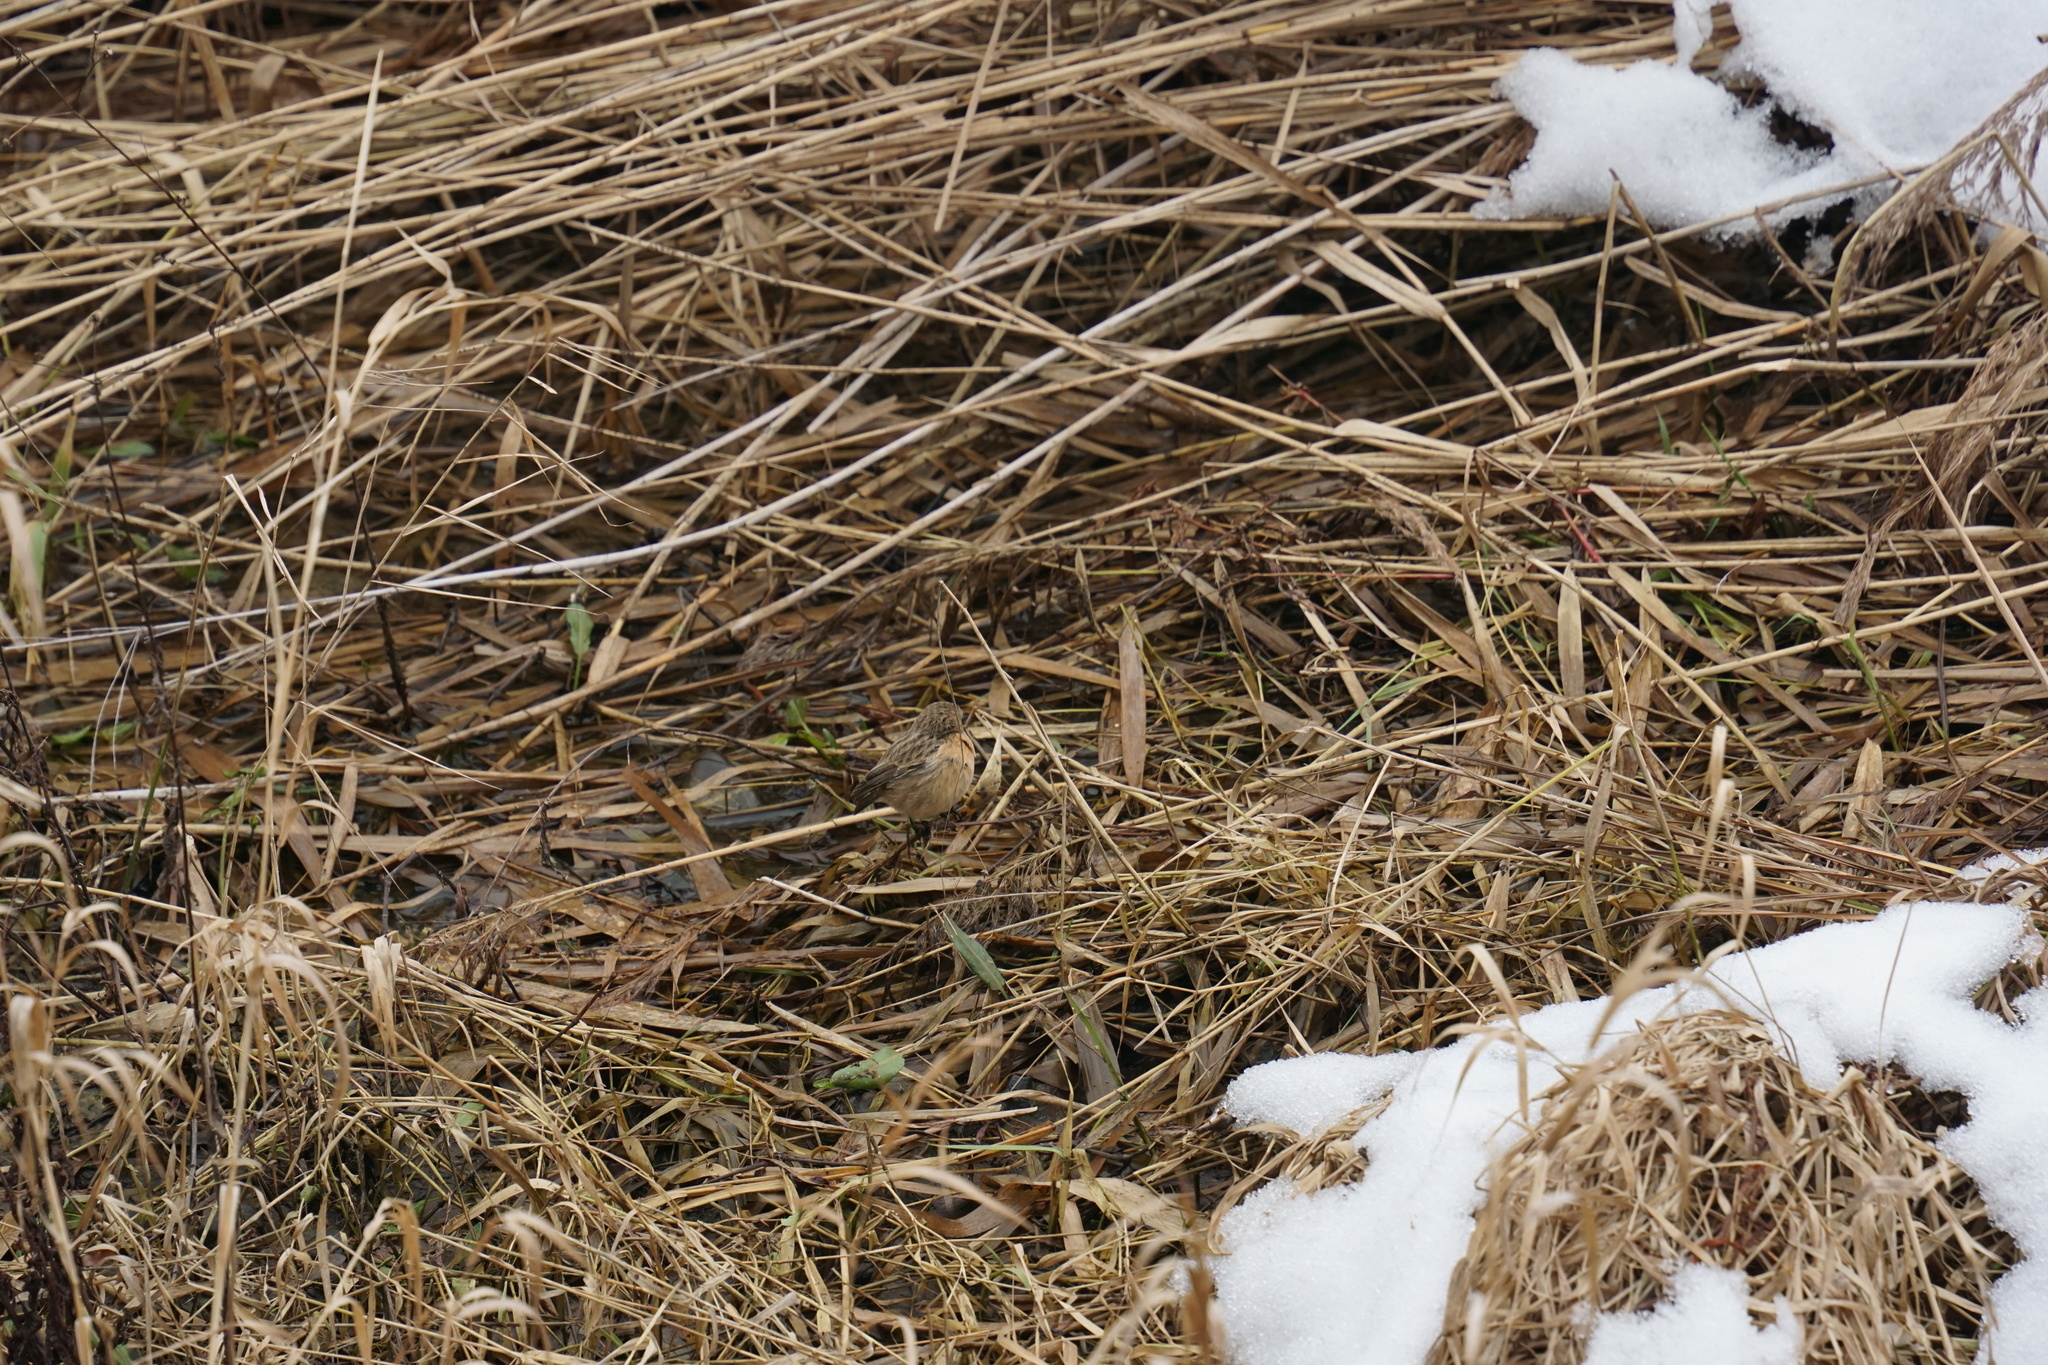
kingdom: Animalia
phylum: Chordata
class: Aves
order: Passeriformes
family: Muscicapidae
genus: Saxicola
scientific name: Saxicola rubicola
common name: European stonechat
